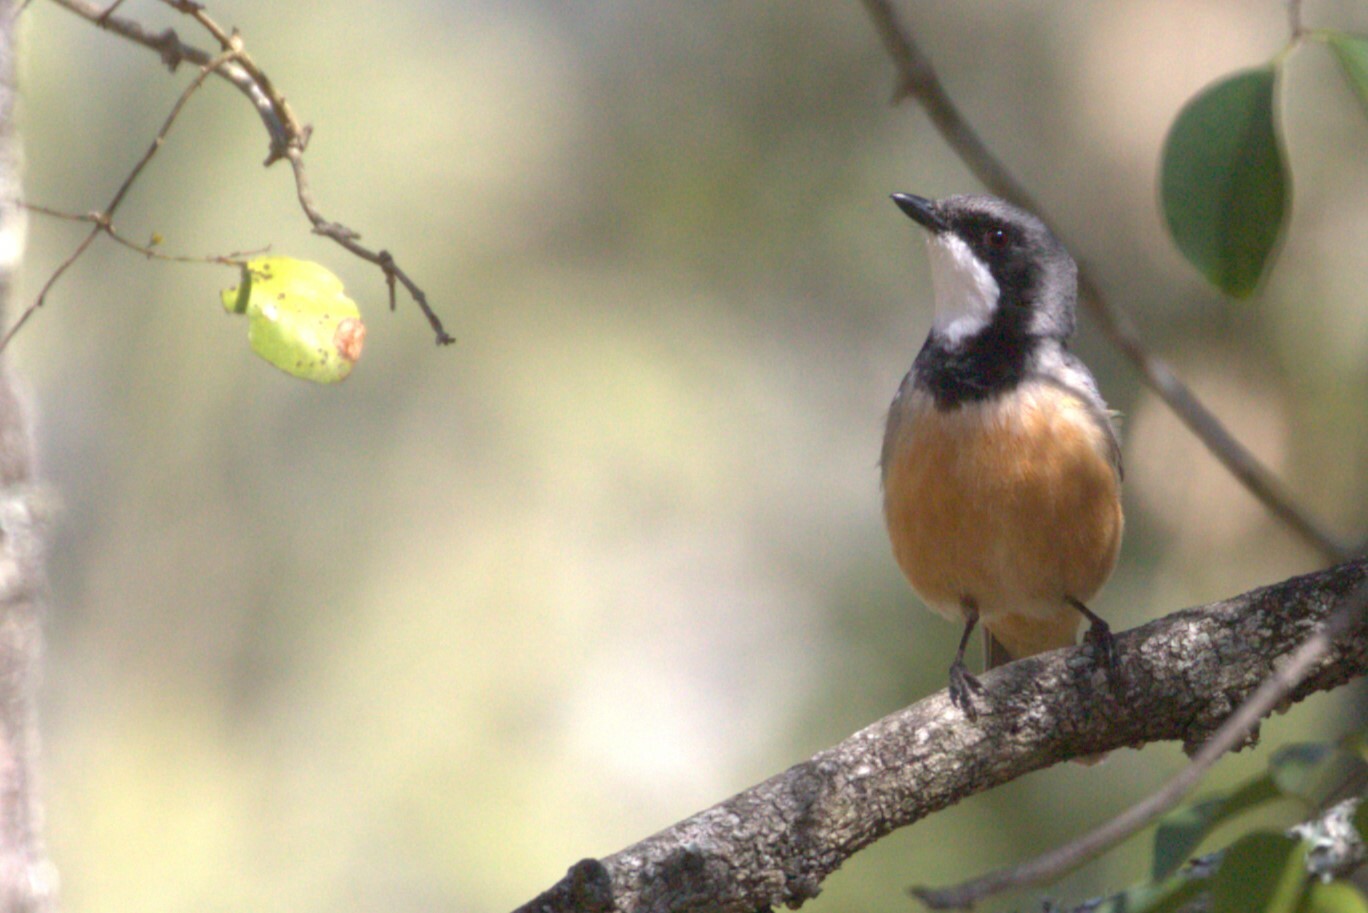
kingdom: Animalia
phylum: Chordata
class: Aves
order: Passeriformes
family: Pachycephalidae
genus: Pachycephala
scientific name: Pachycephala rufiventris
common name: Rufous whistler
